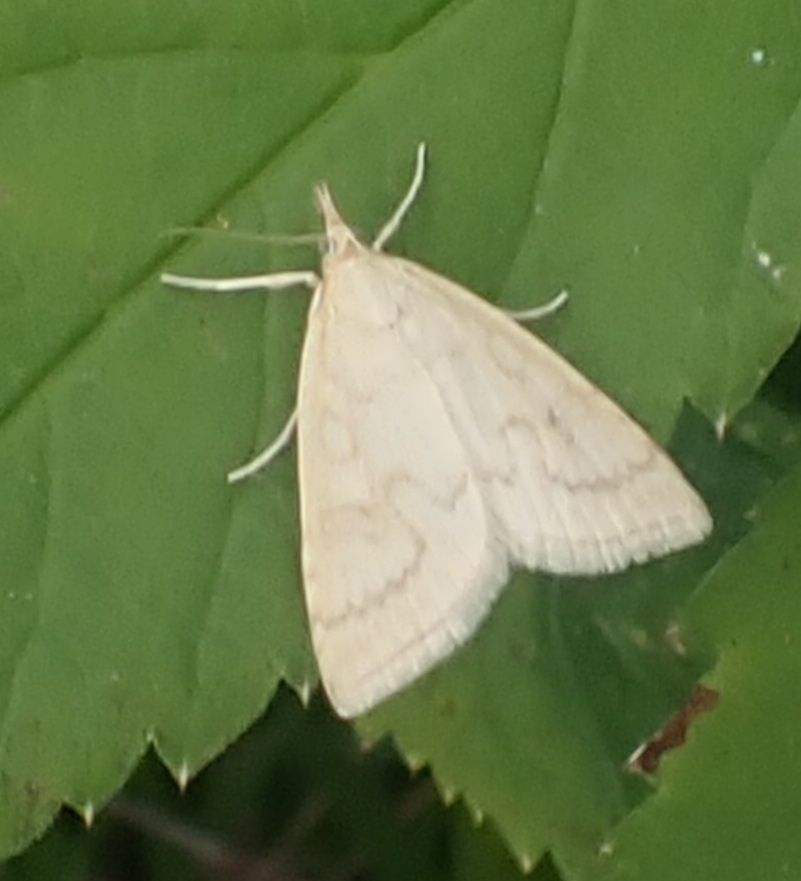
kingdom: Animalia
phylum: Arthropoda
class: Insecta
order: Lepidoptera
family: Crambidae
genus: Udea
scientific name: Udea lutealis
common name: Pale straw pearl
